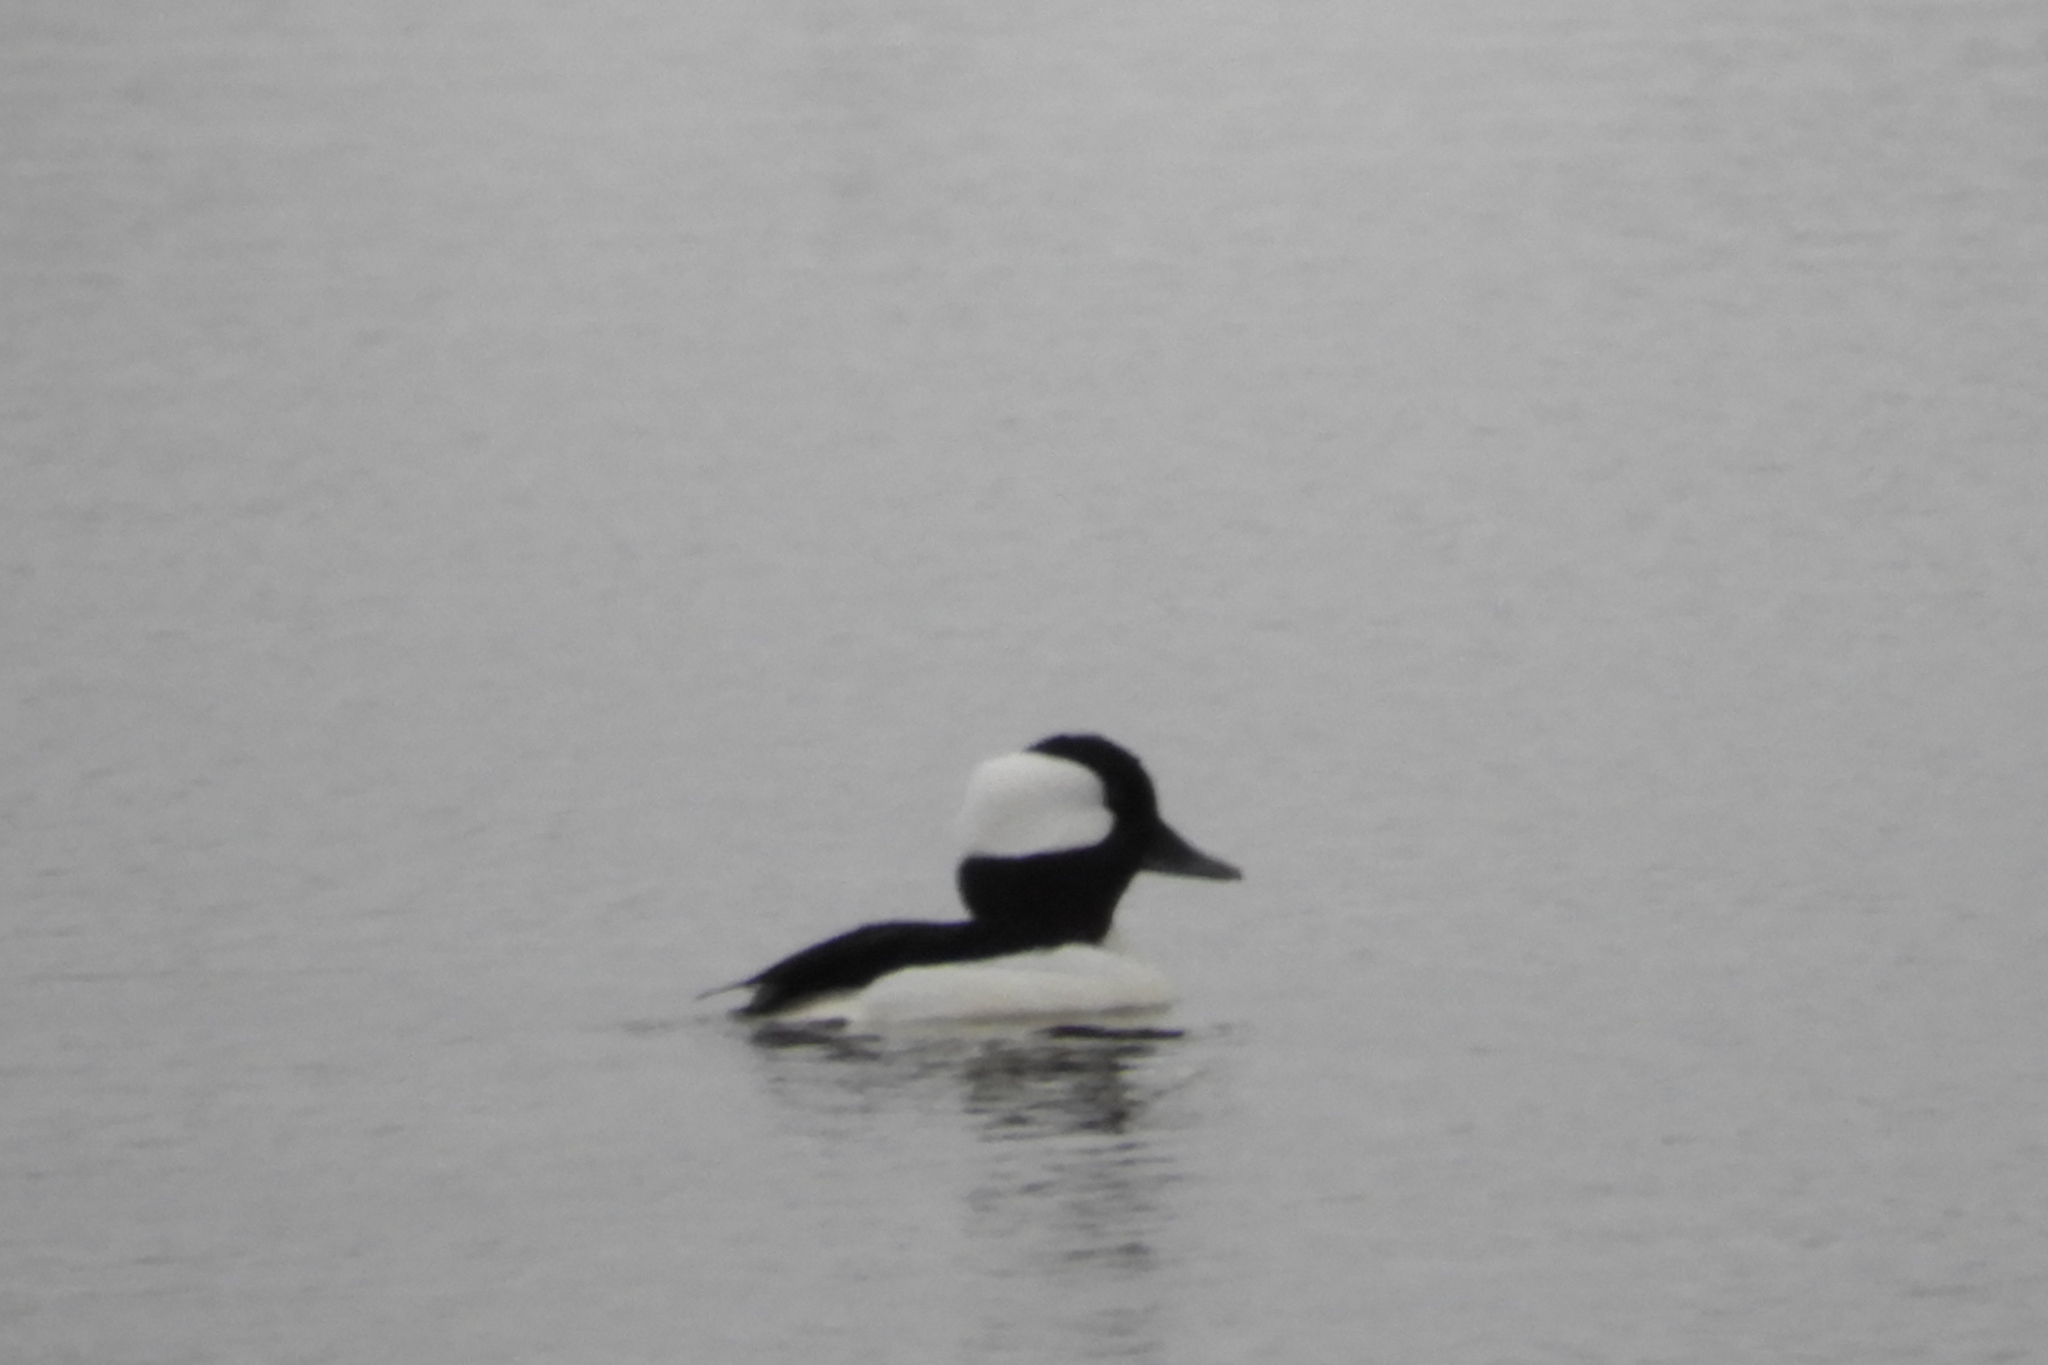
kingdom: Animalia
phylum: Chordata
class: Aves
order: Anseriformes
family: Anatidae
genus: Bucephala
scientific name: Bucephala albeola
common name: Bufflehead
